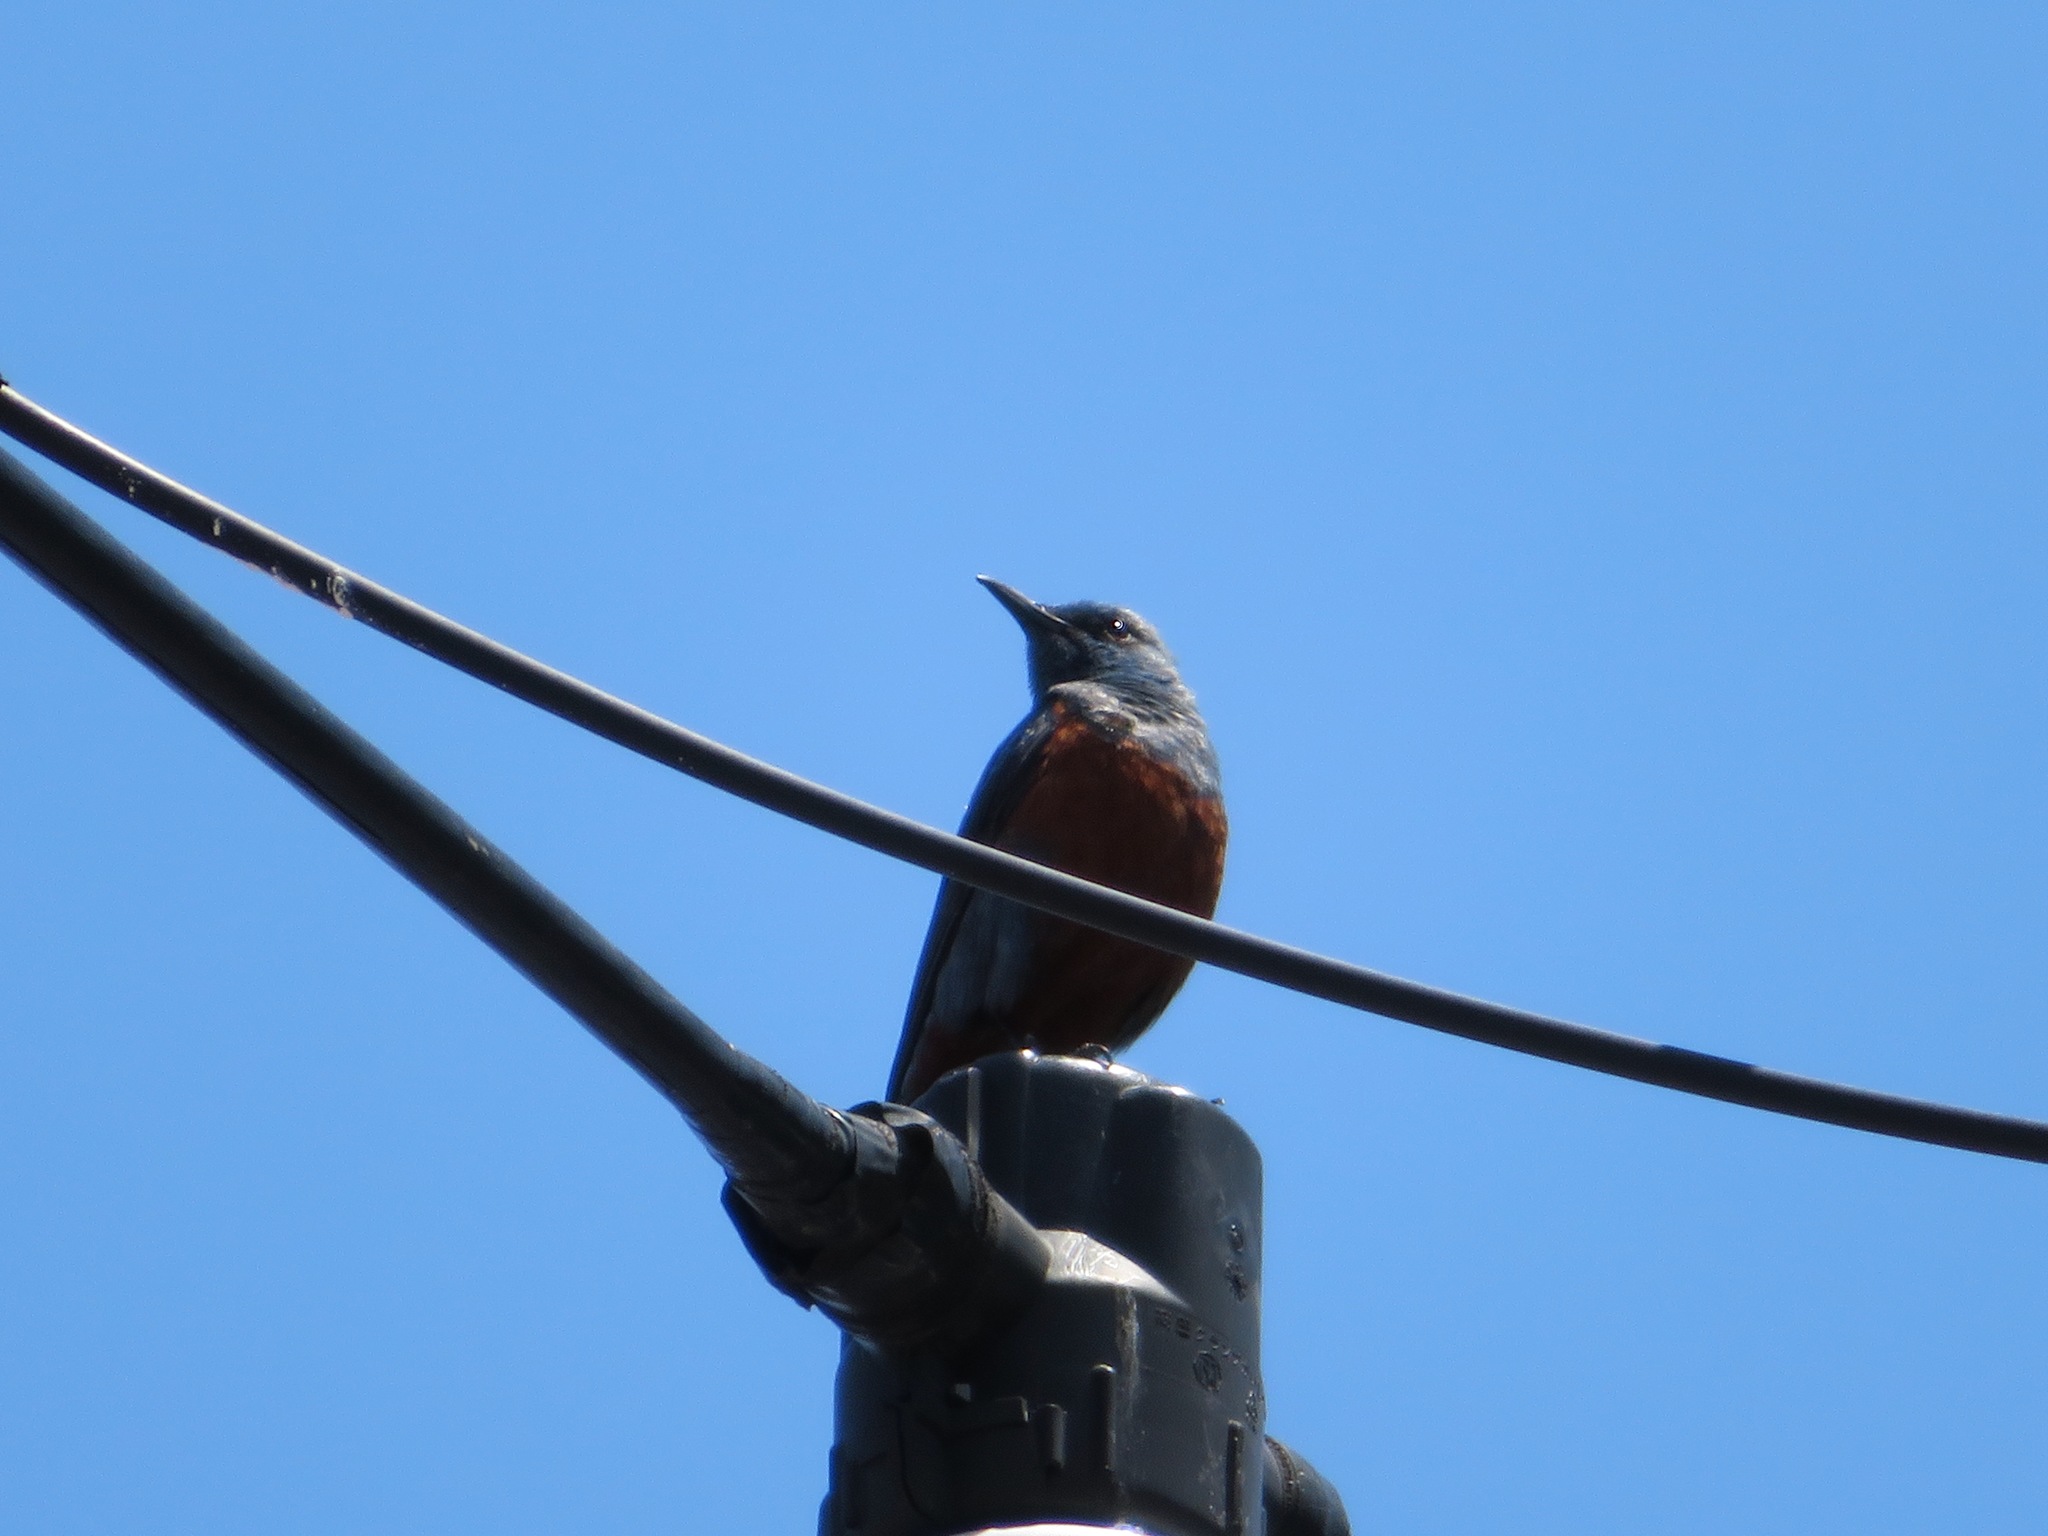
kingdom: Animalia
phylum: Chordata
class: Aves
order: Passeriformes
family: Muscicapidae
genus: Monticola
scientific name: Monticola solitarius
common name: Blue rock thrush
